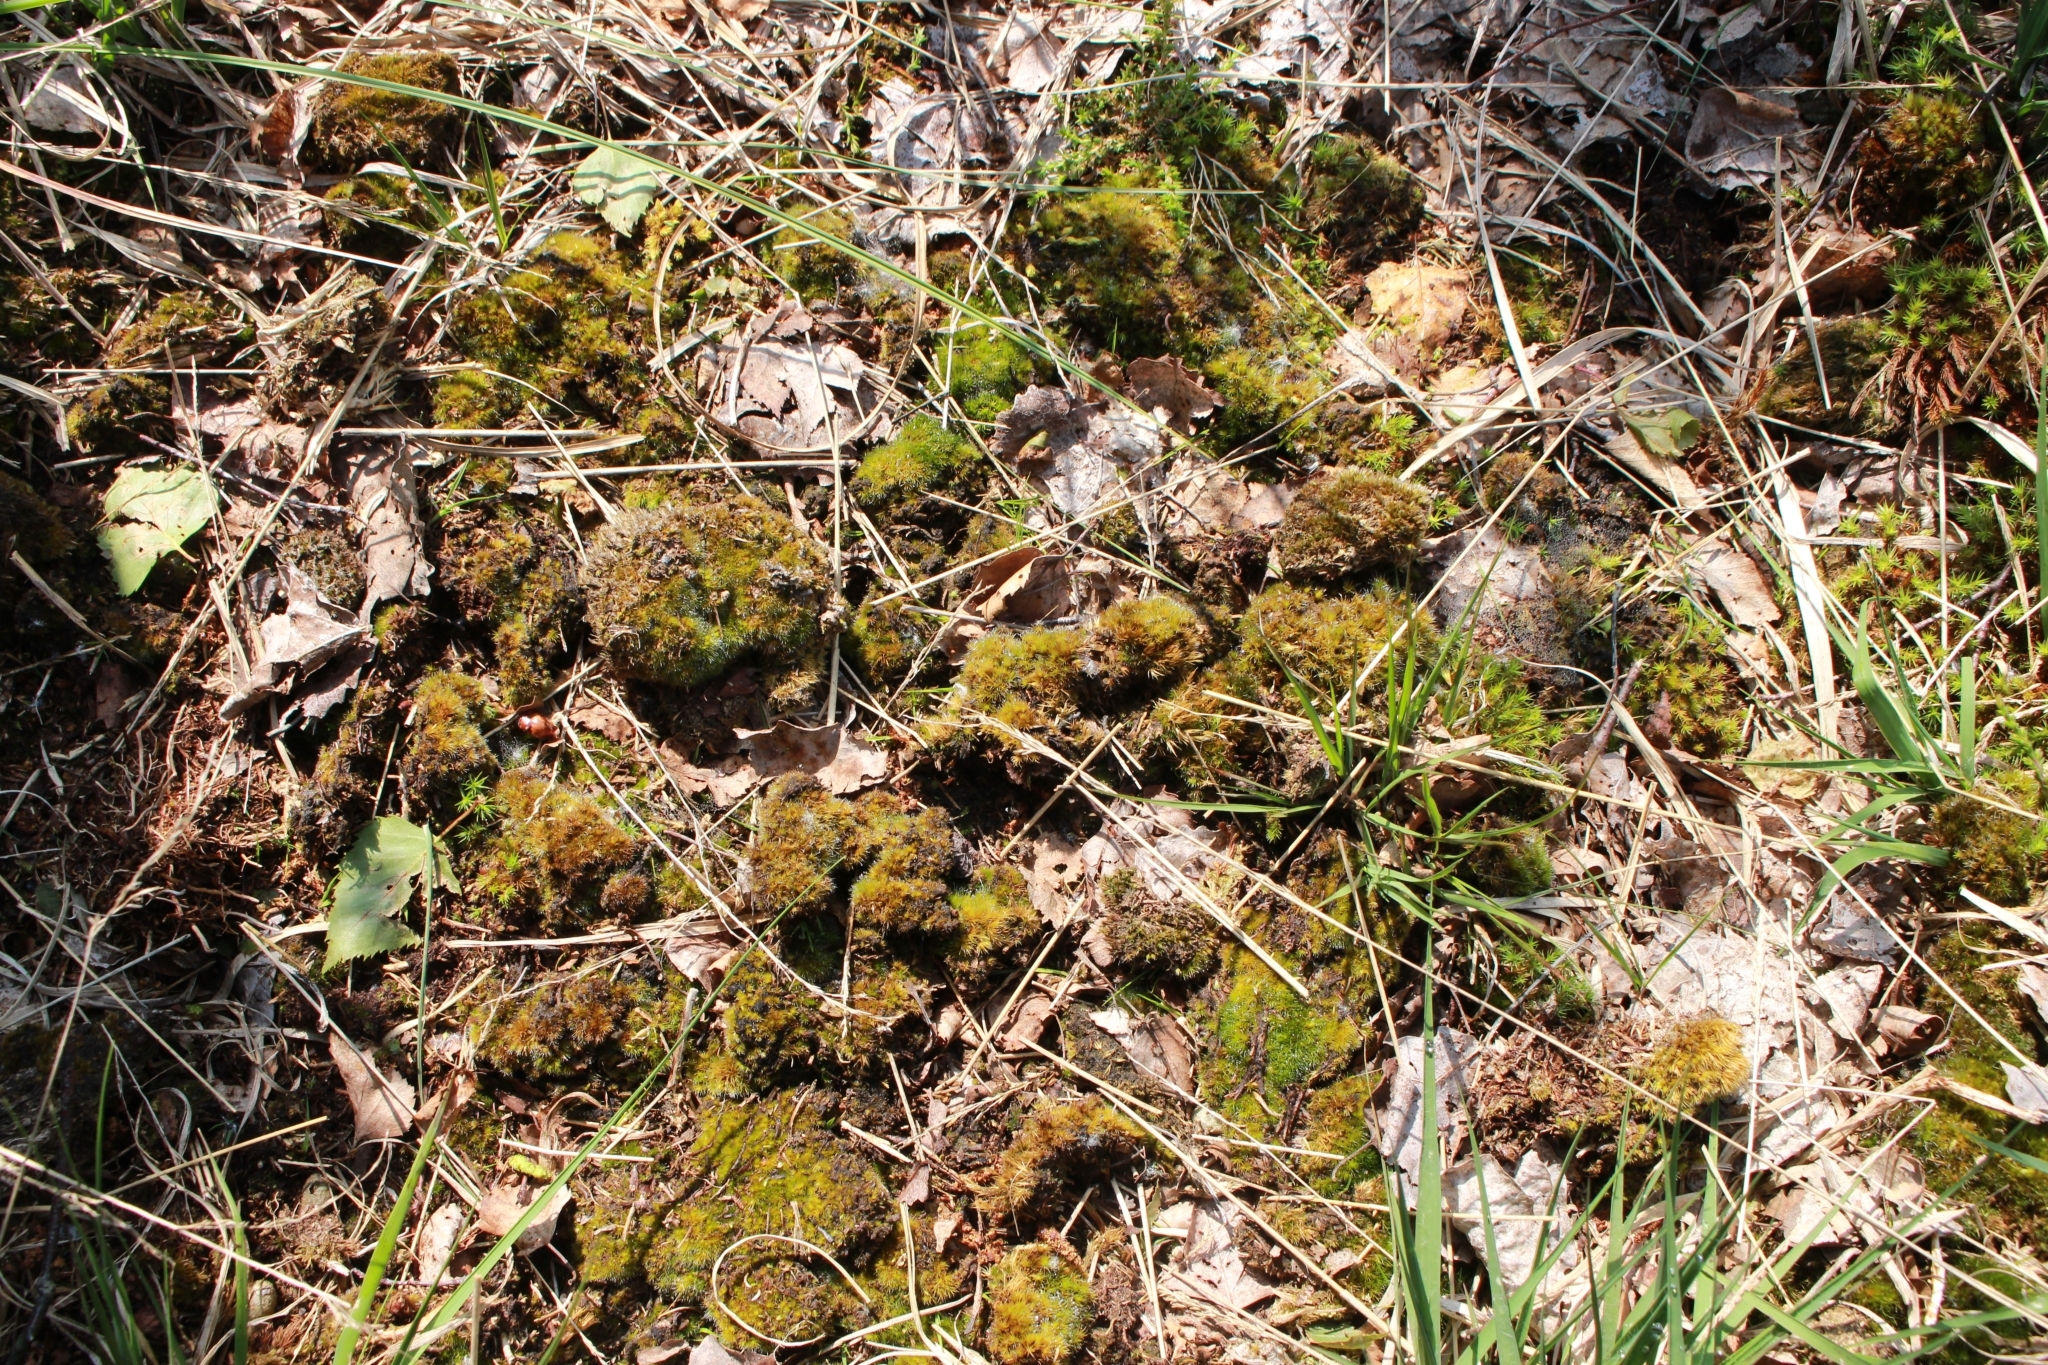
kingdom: Plantae
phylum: Bryophyta
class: Bryopsida
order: Dicranales
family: Leucobryaceae
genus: Campylopus
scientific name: Campylopus introflexus
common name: Heath star moss
